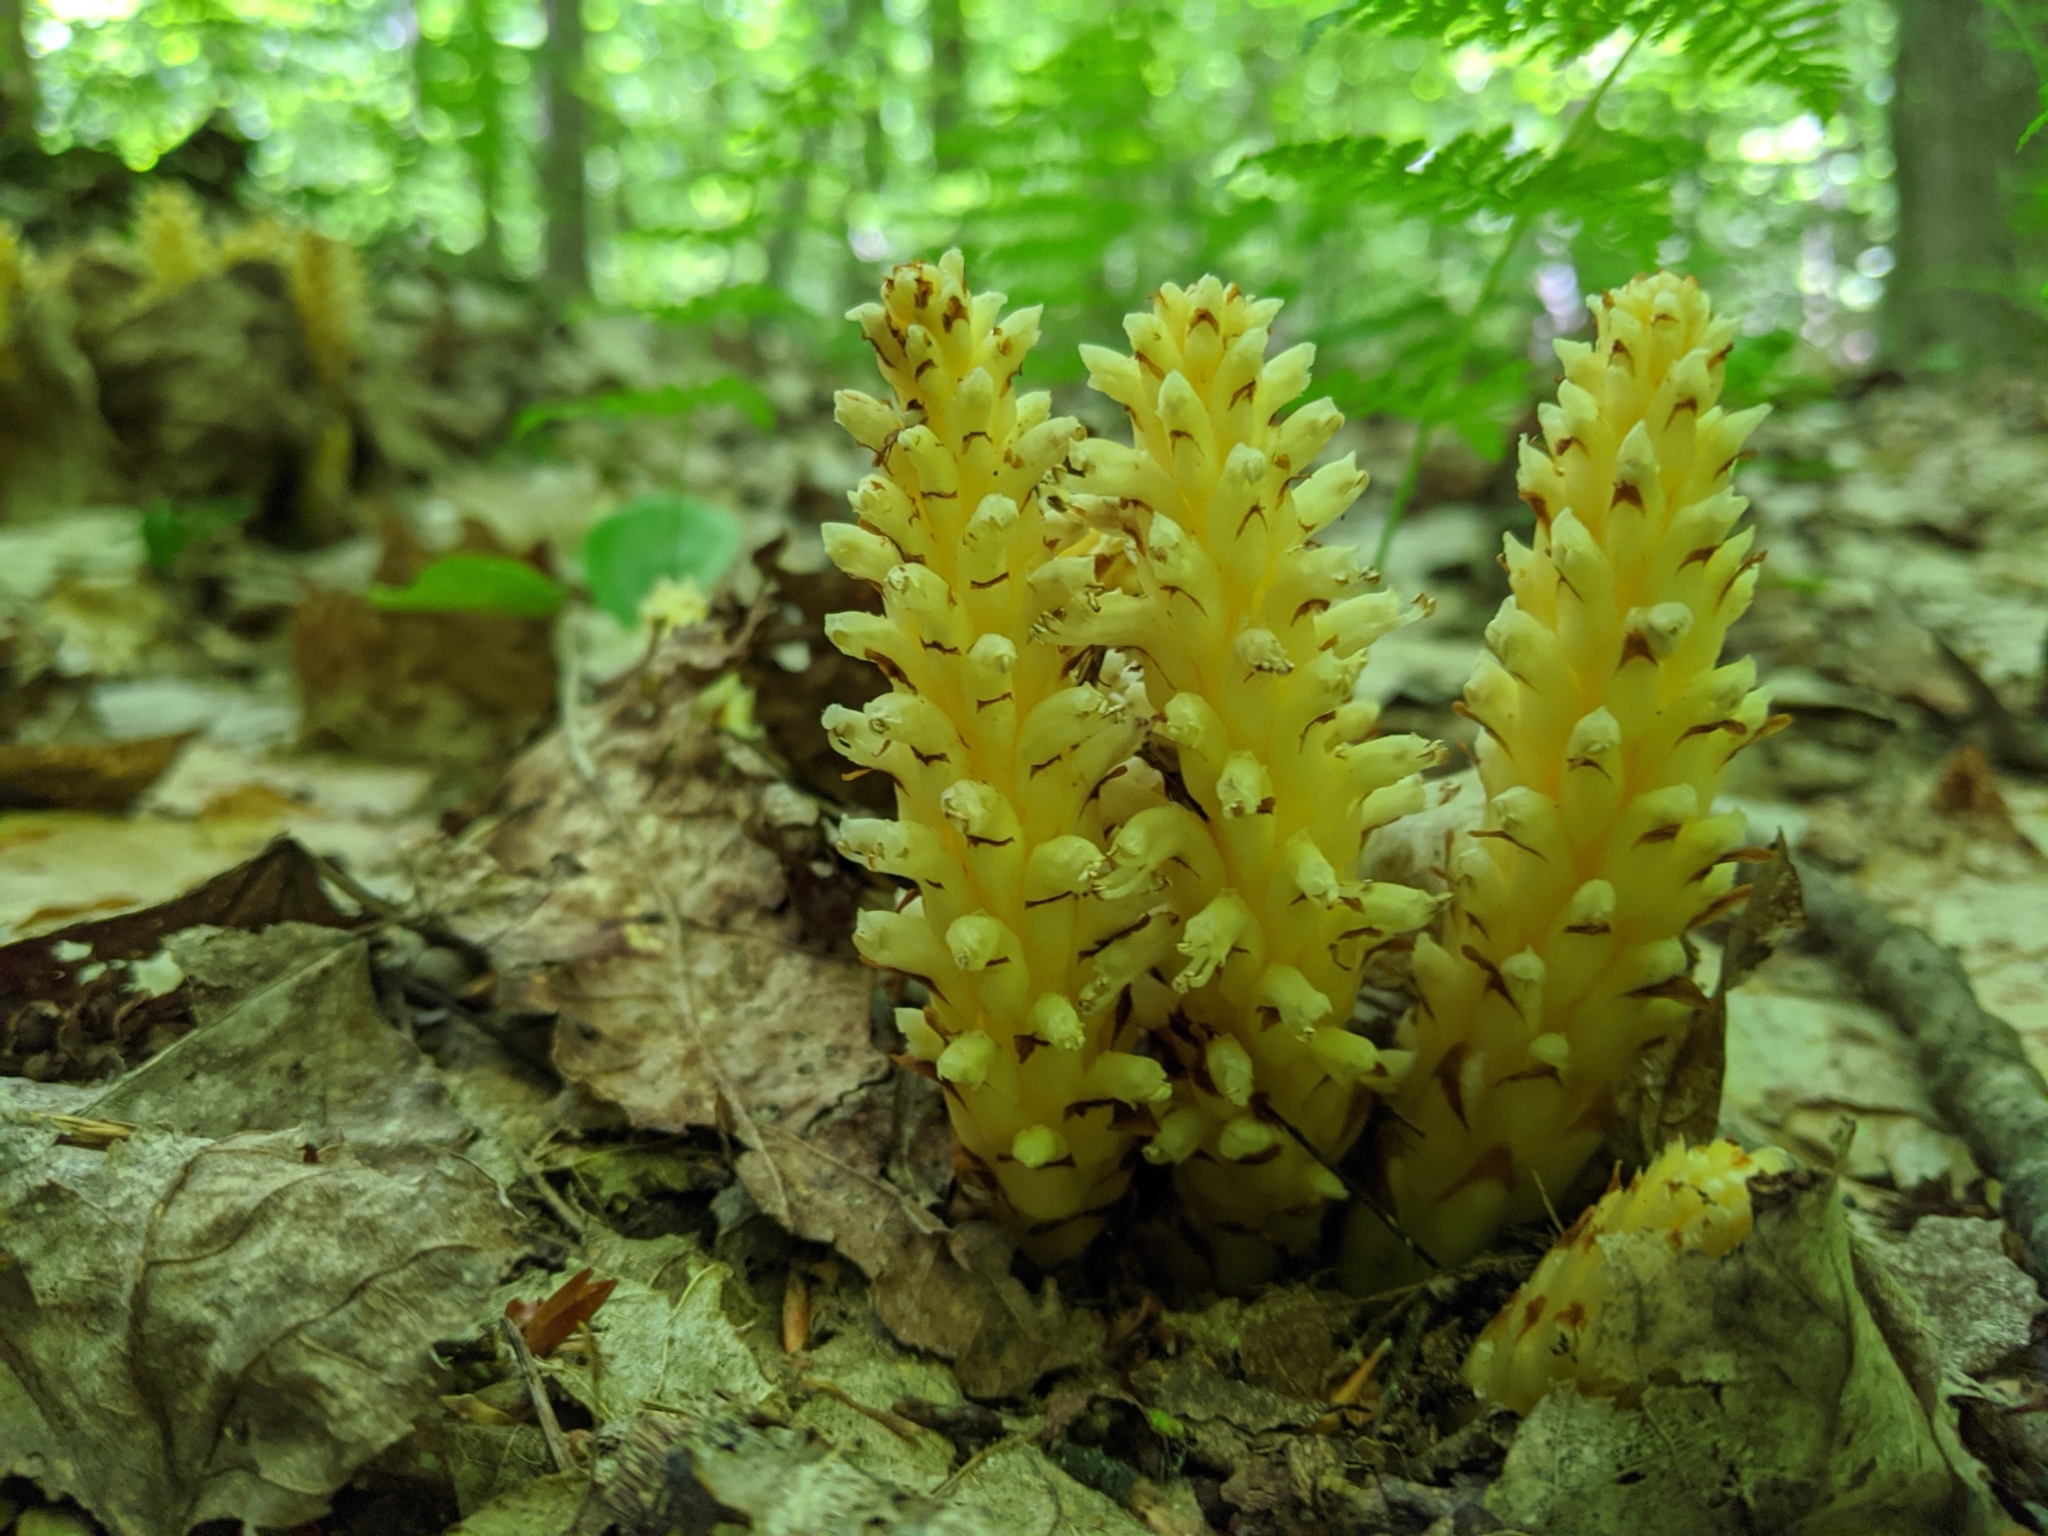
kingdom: Plantae
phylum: Tracheophyta
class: Magnoliopsida
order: Lamiales
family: Orobanchaceae
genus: Conopholis
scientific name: Conopholis americana
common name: American cancer-root
